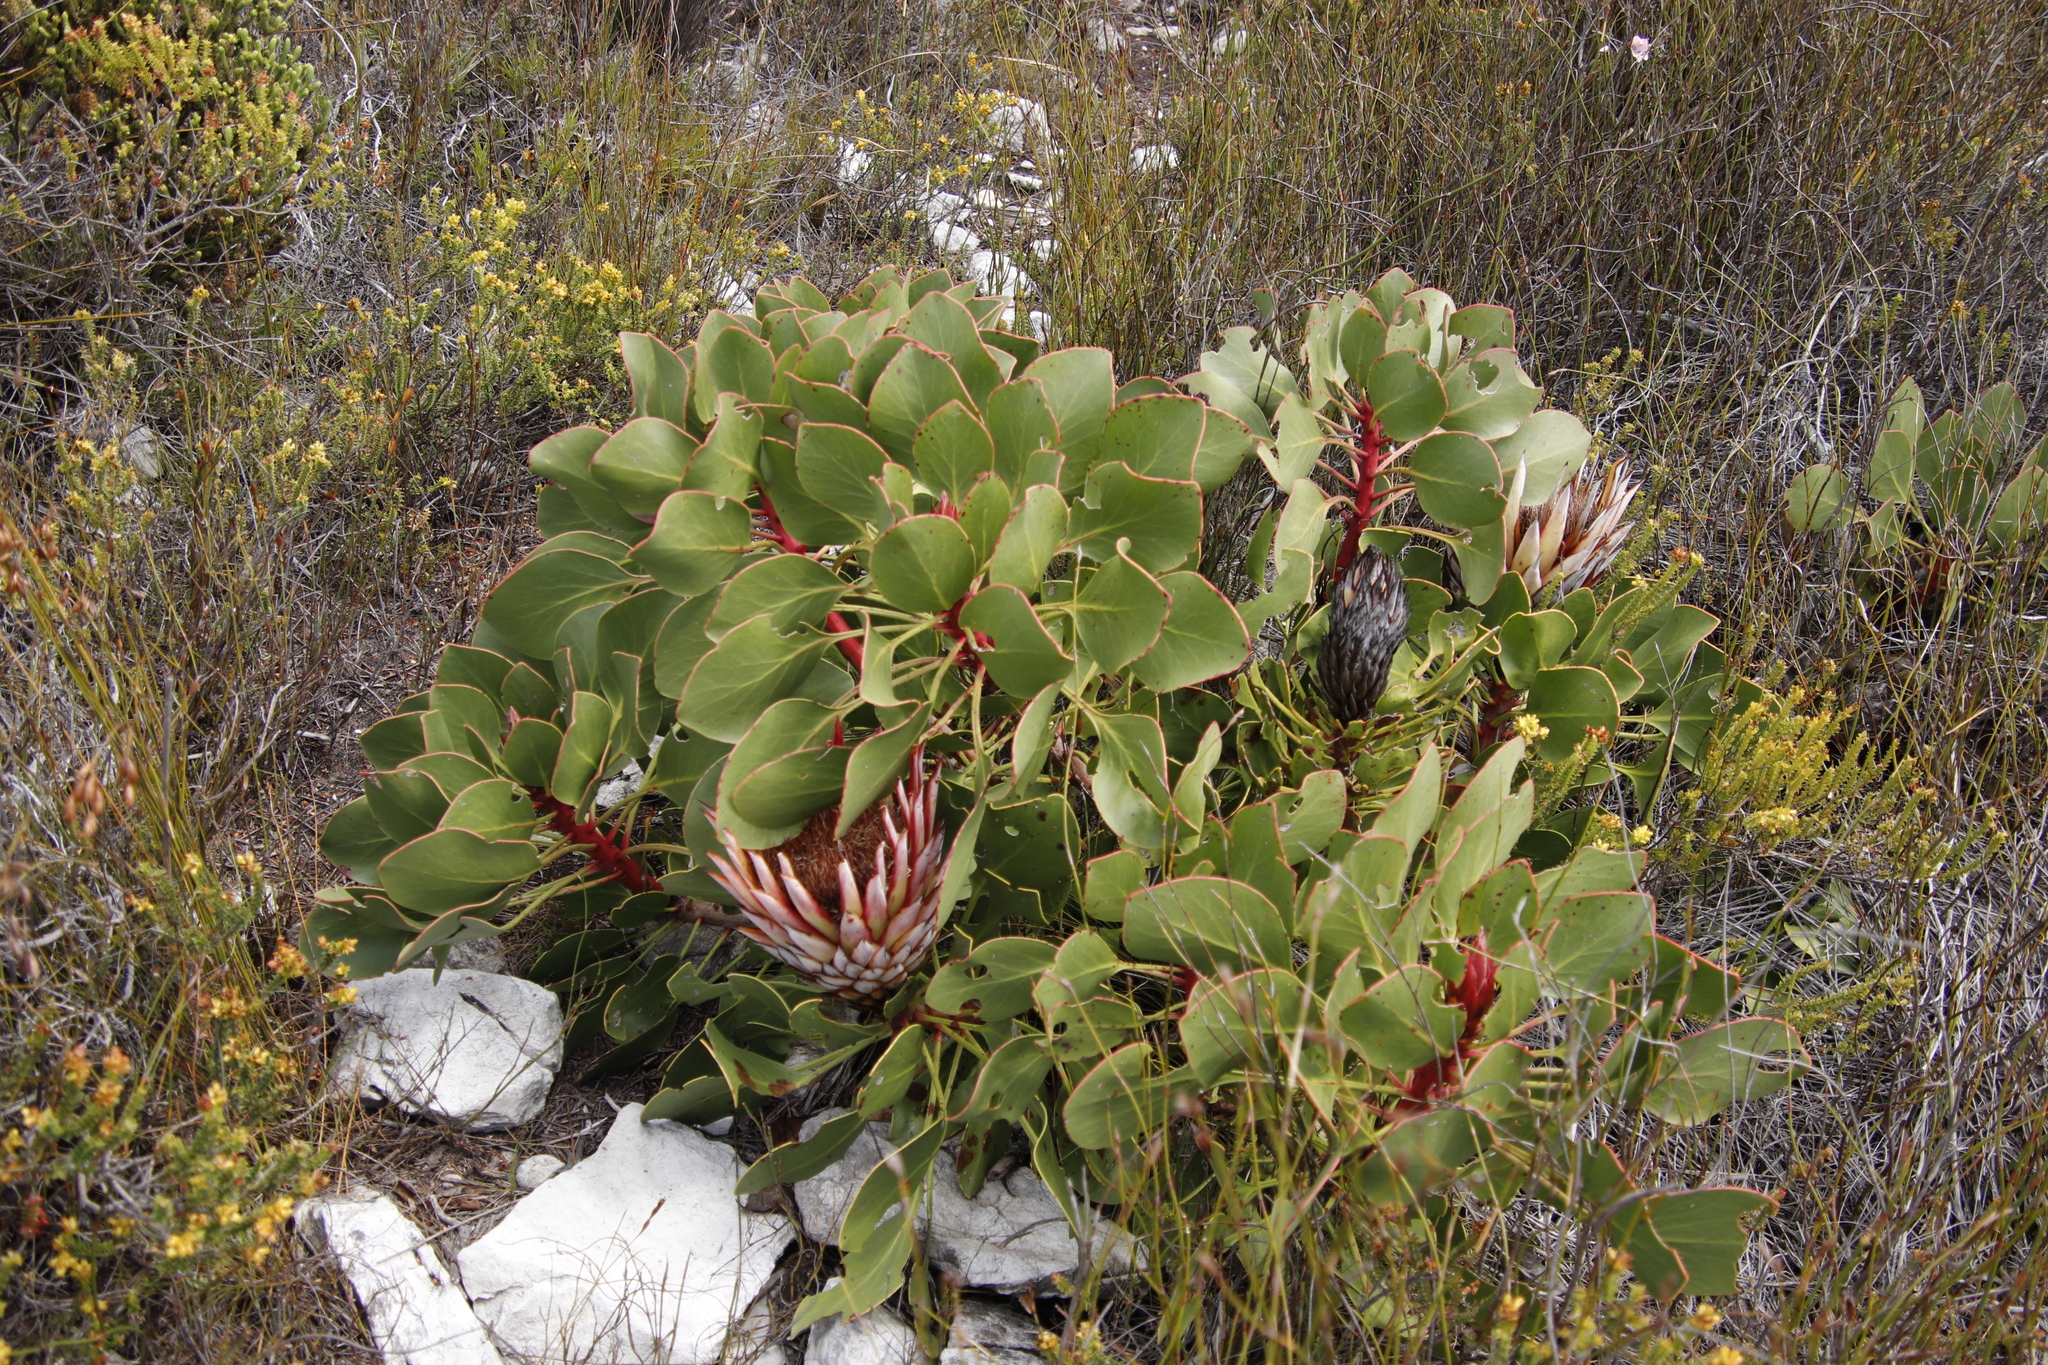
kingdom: Plantae
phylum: Tracheophyta
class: Magnoliopsida
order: Proteales
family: Proteaceae
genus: Protea
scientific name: Protea cynaroides
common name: King protea
